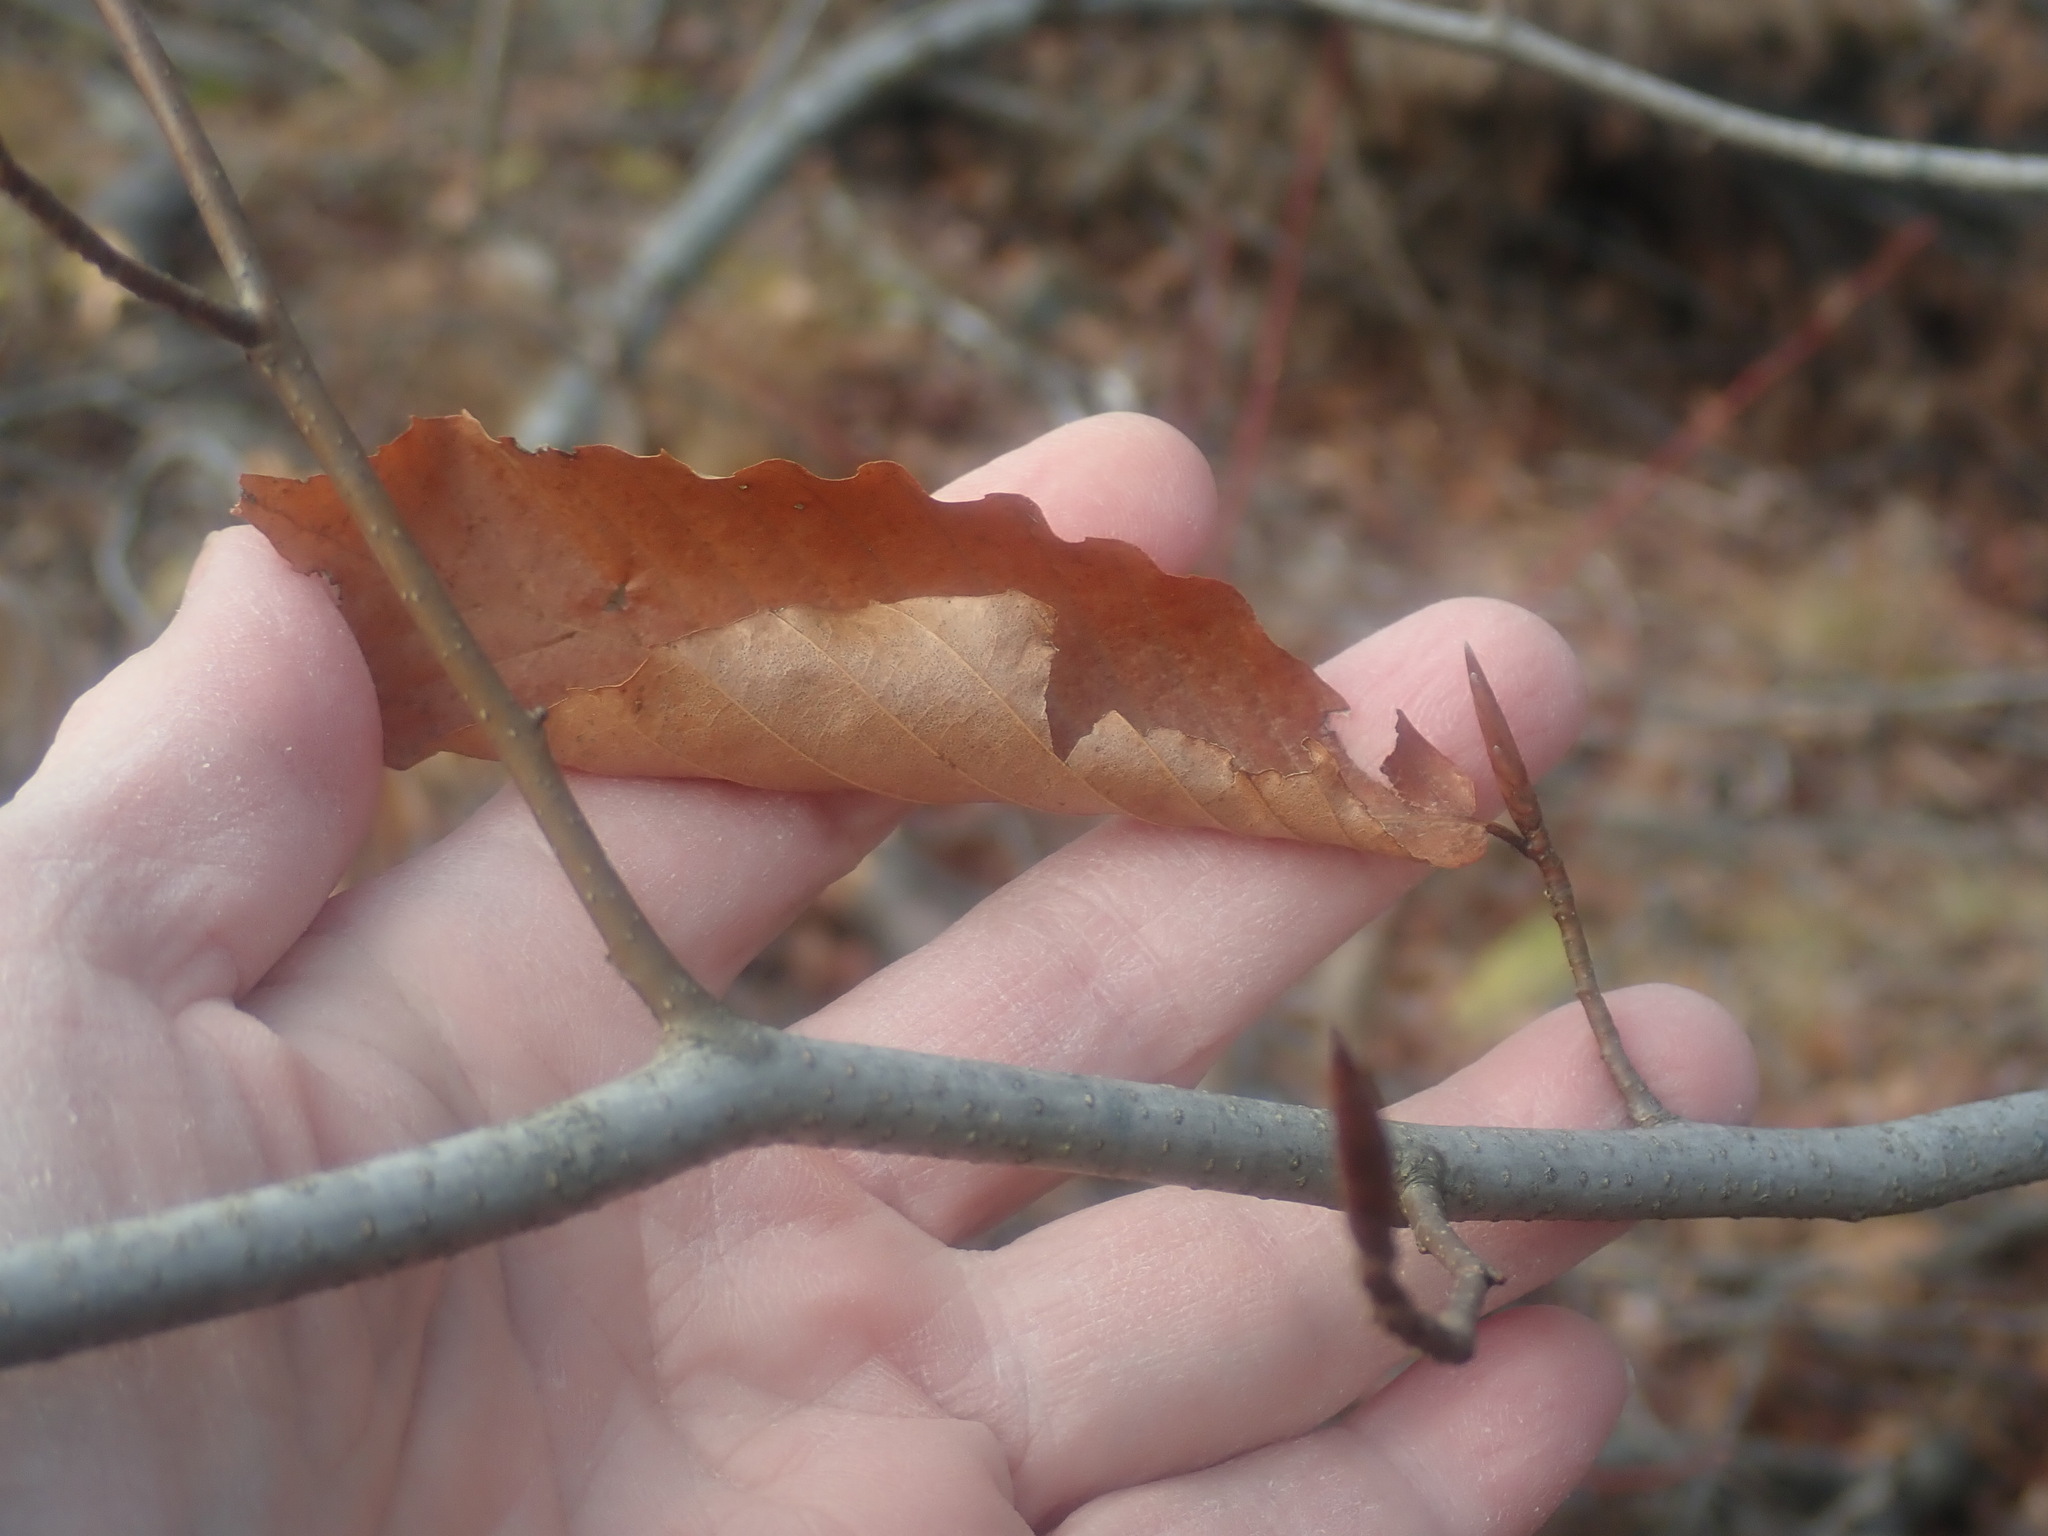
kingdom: Plantae
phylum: Tracheophyta
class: Magnoliopsida
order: Fagales
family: Fagaceae
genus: Fagus
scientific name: Fagus grandifolia
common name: American beech
